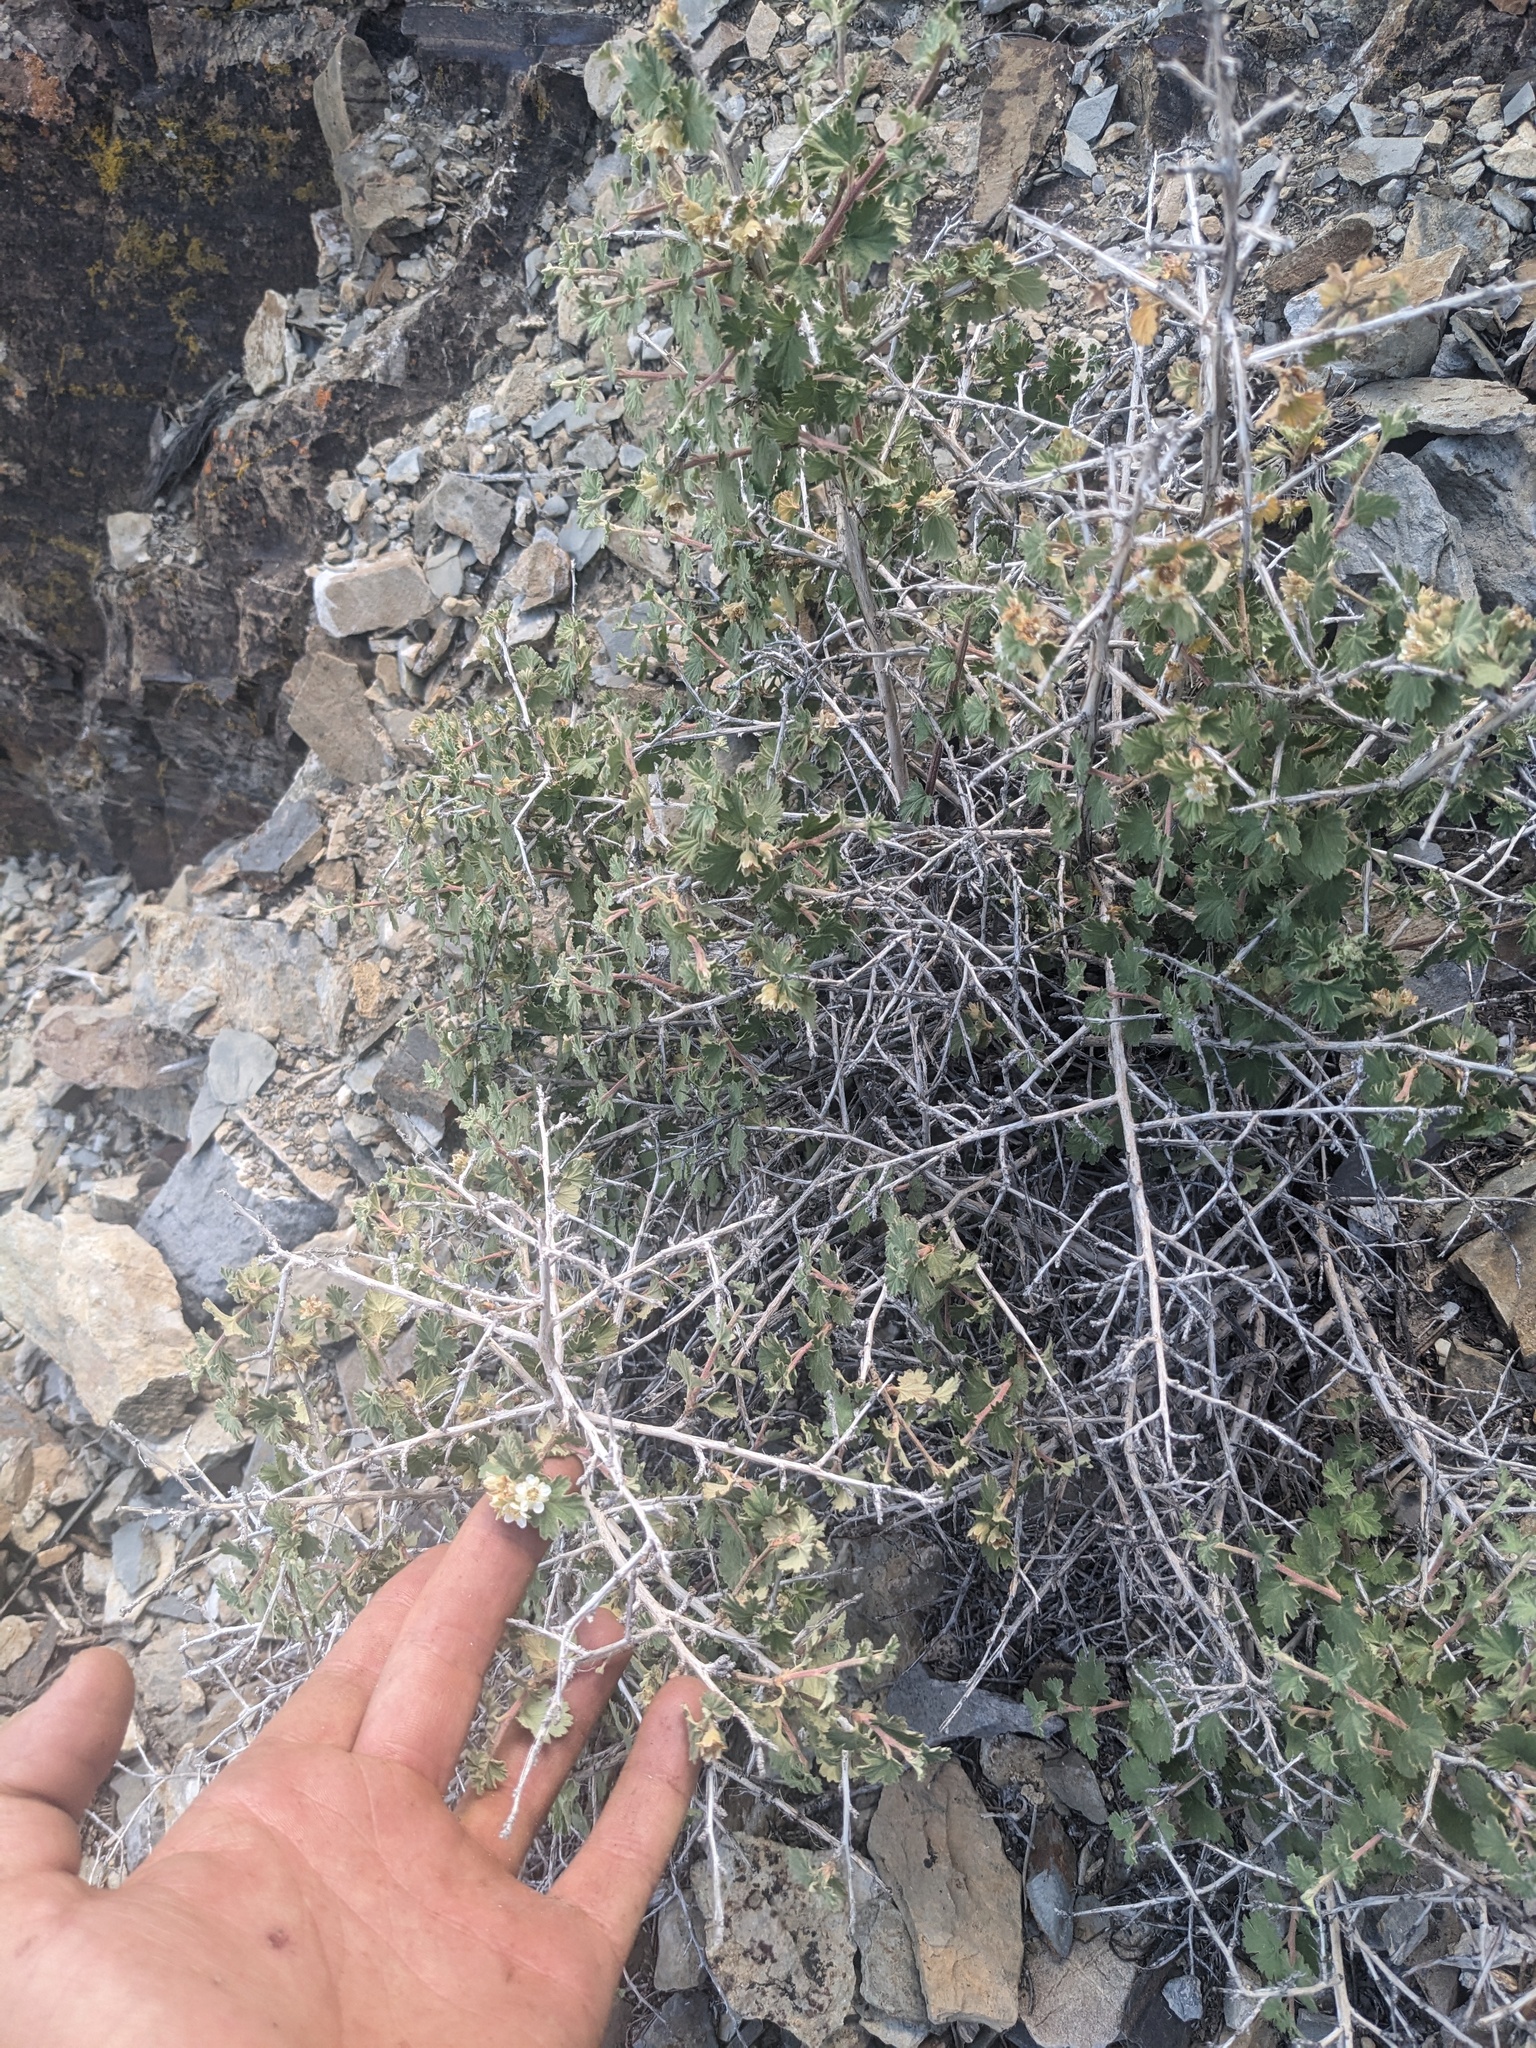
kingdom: Plantae
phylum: Tracheophyta
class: Magnoliopsida
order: Rosales
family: Rosaceae
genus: Physocarpus
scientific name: Physocarpus alternans
